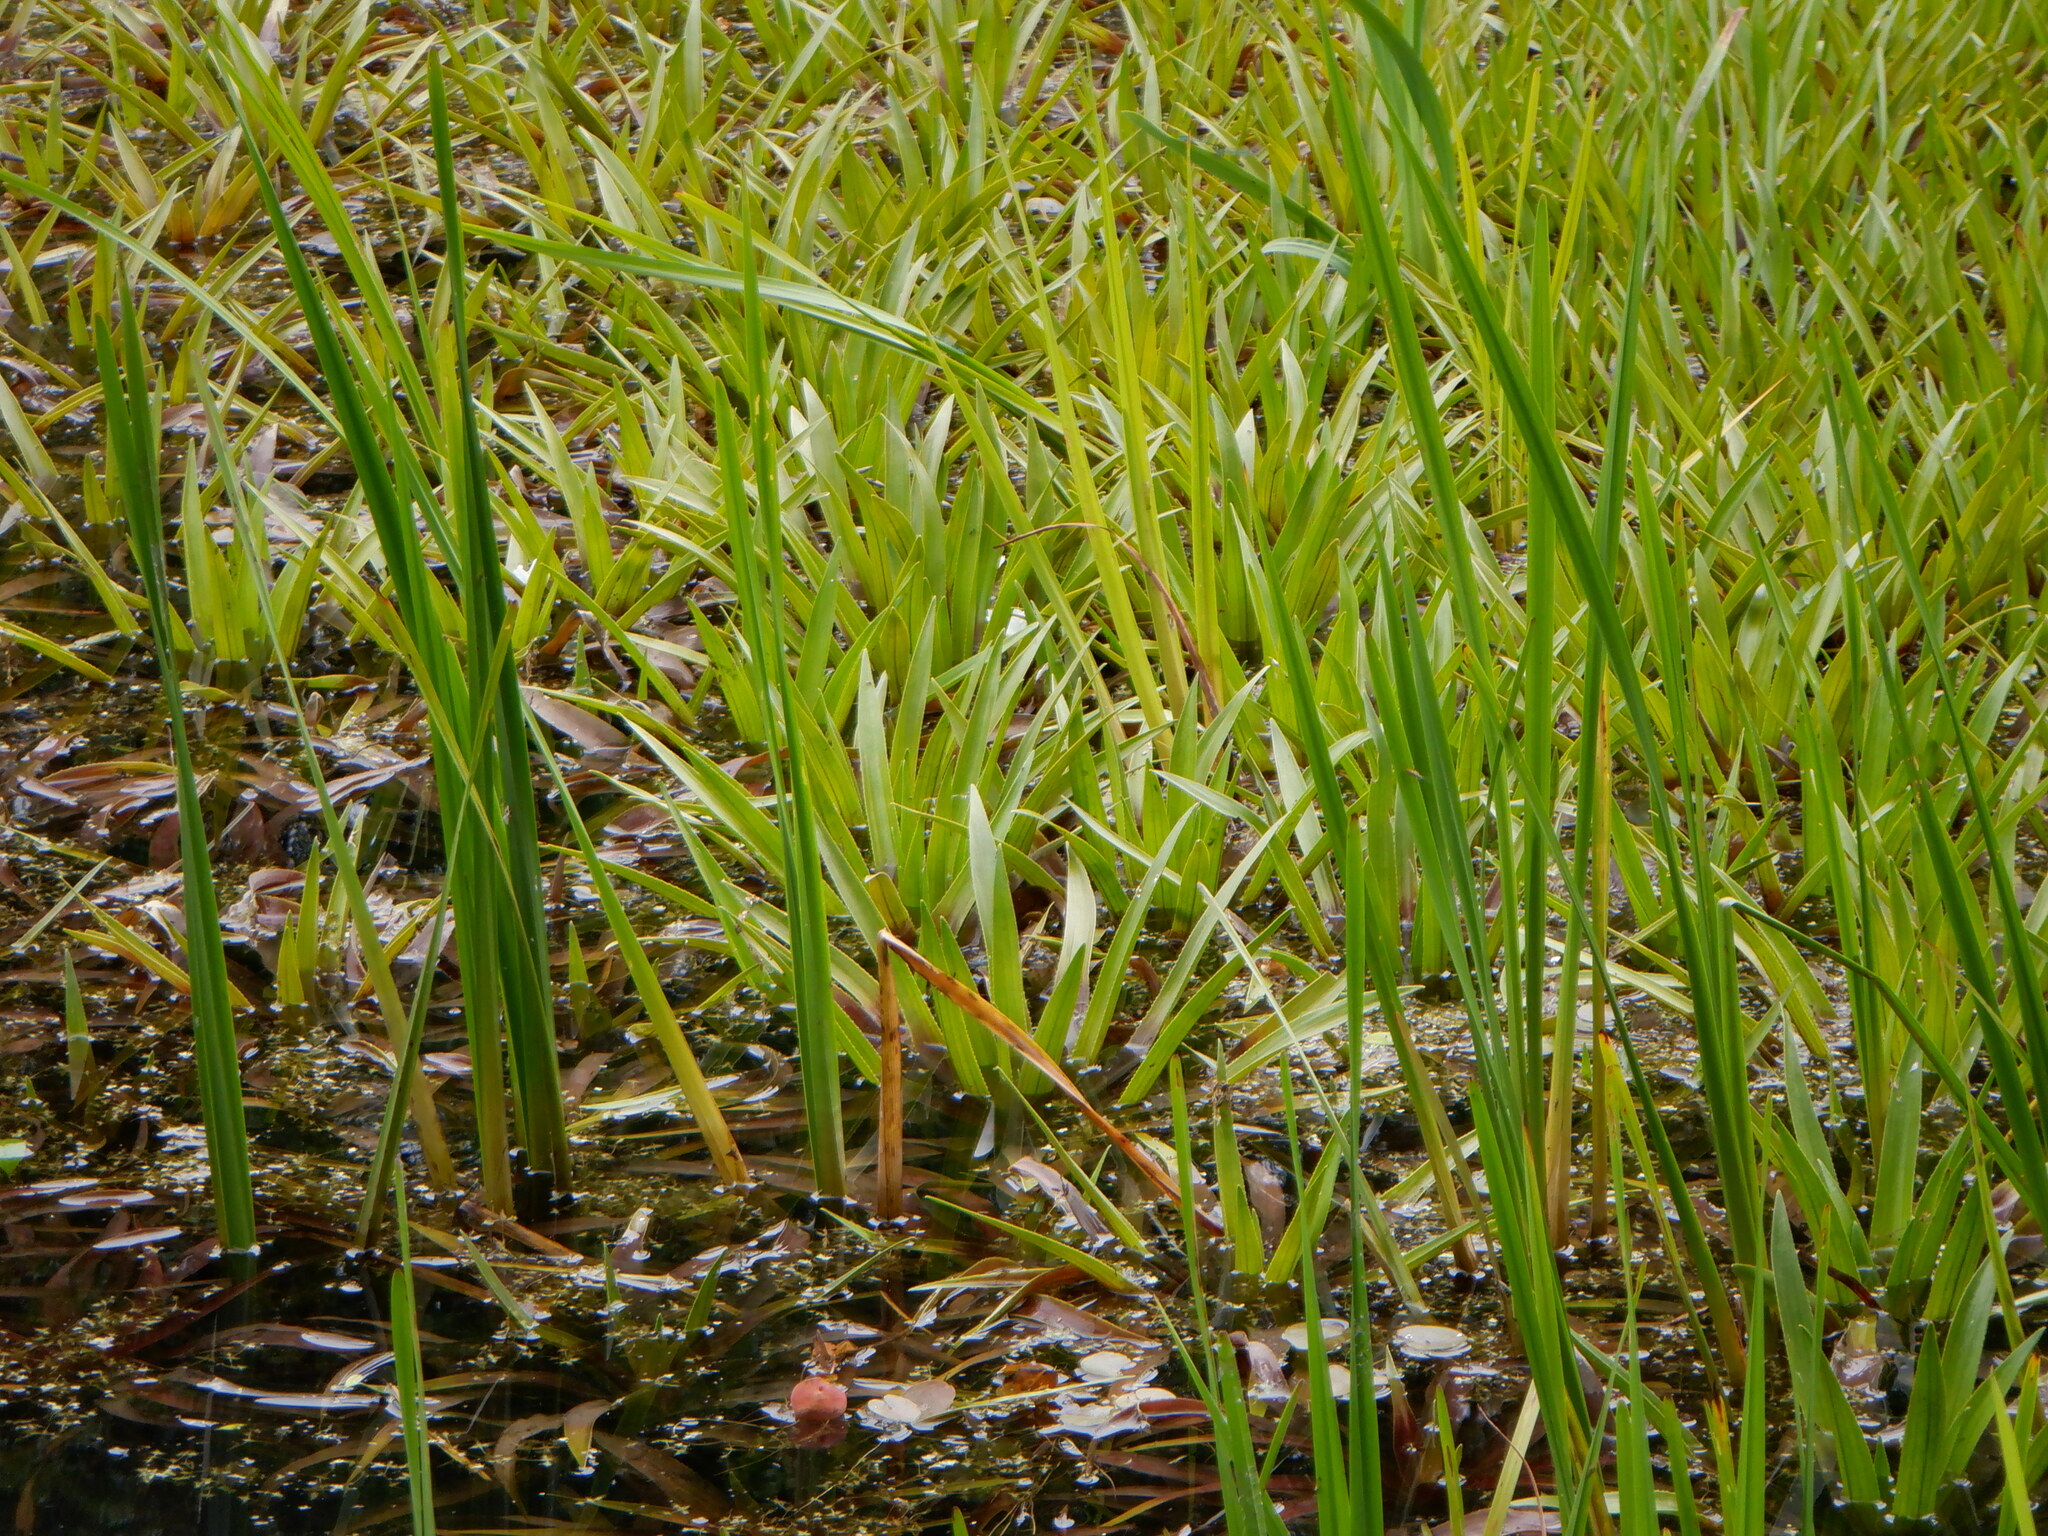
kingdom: Plantae
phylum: Tracheophyta
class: Liliopsida
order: Alismatales
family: Hydrocharitaceae
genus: Stratiotes
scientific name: Stratiotes aloides
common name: Water-soldier
